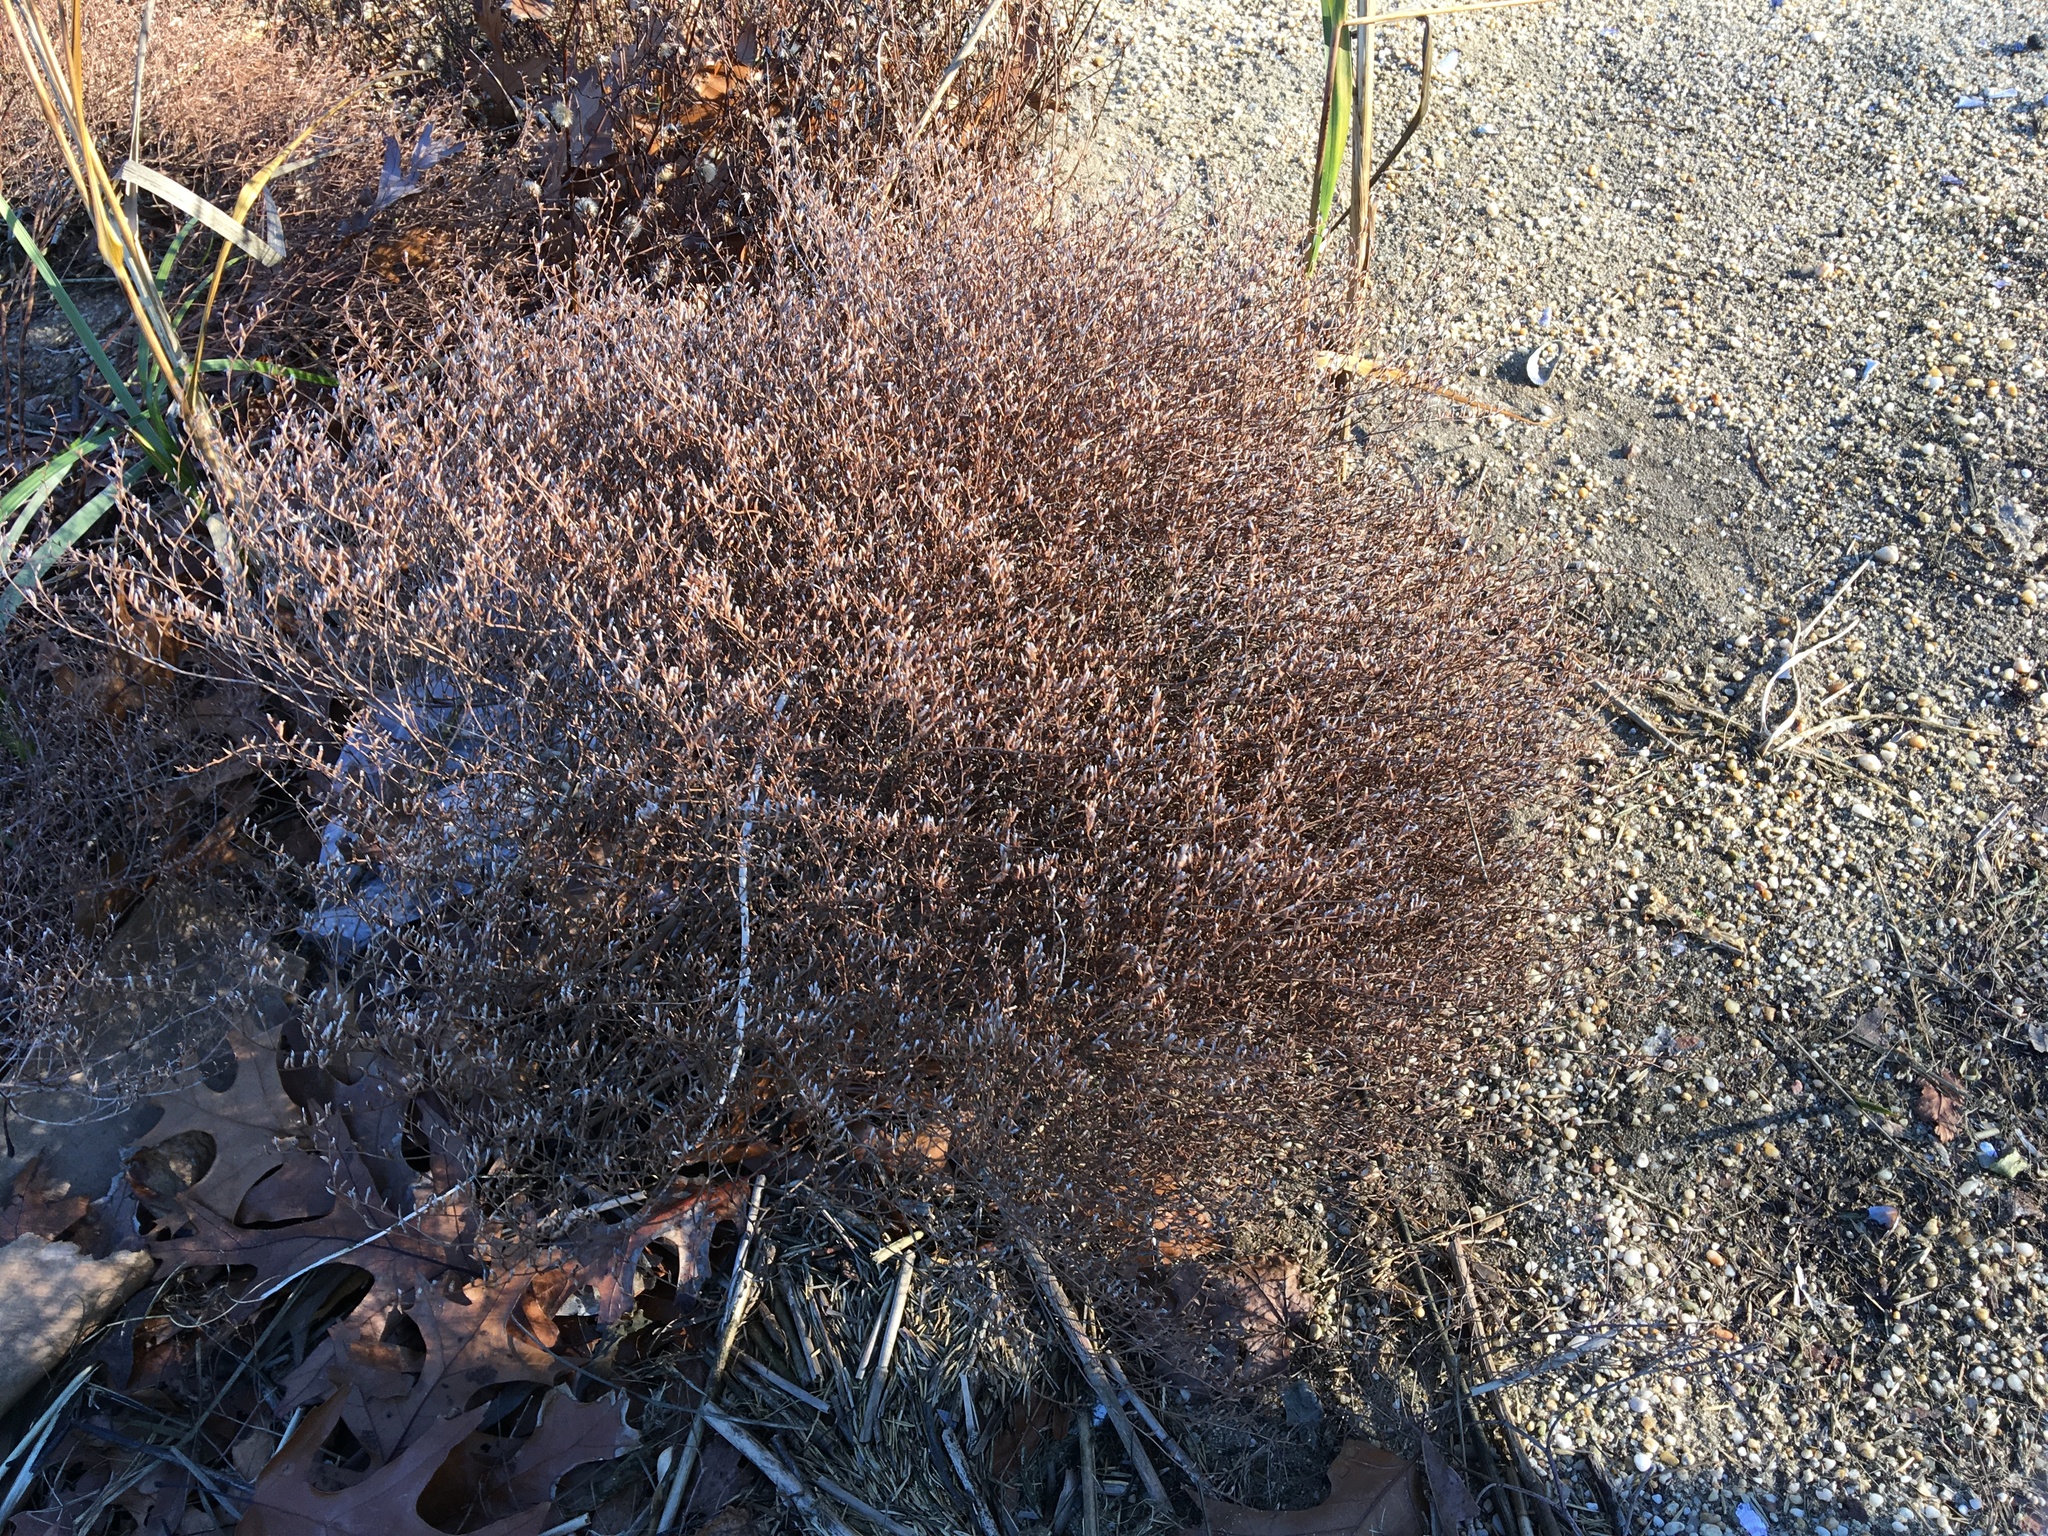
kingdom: Plantae
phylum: Tracheophyta
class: Magnoliopsida
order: Caryophyllales
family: Plumbaginaceae
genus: Limonium
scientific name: Limonium carolinianum
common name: Carolina sea lavender
